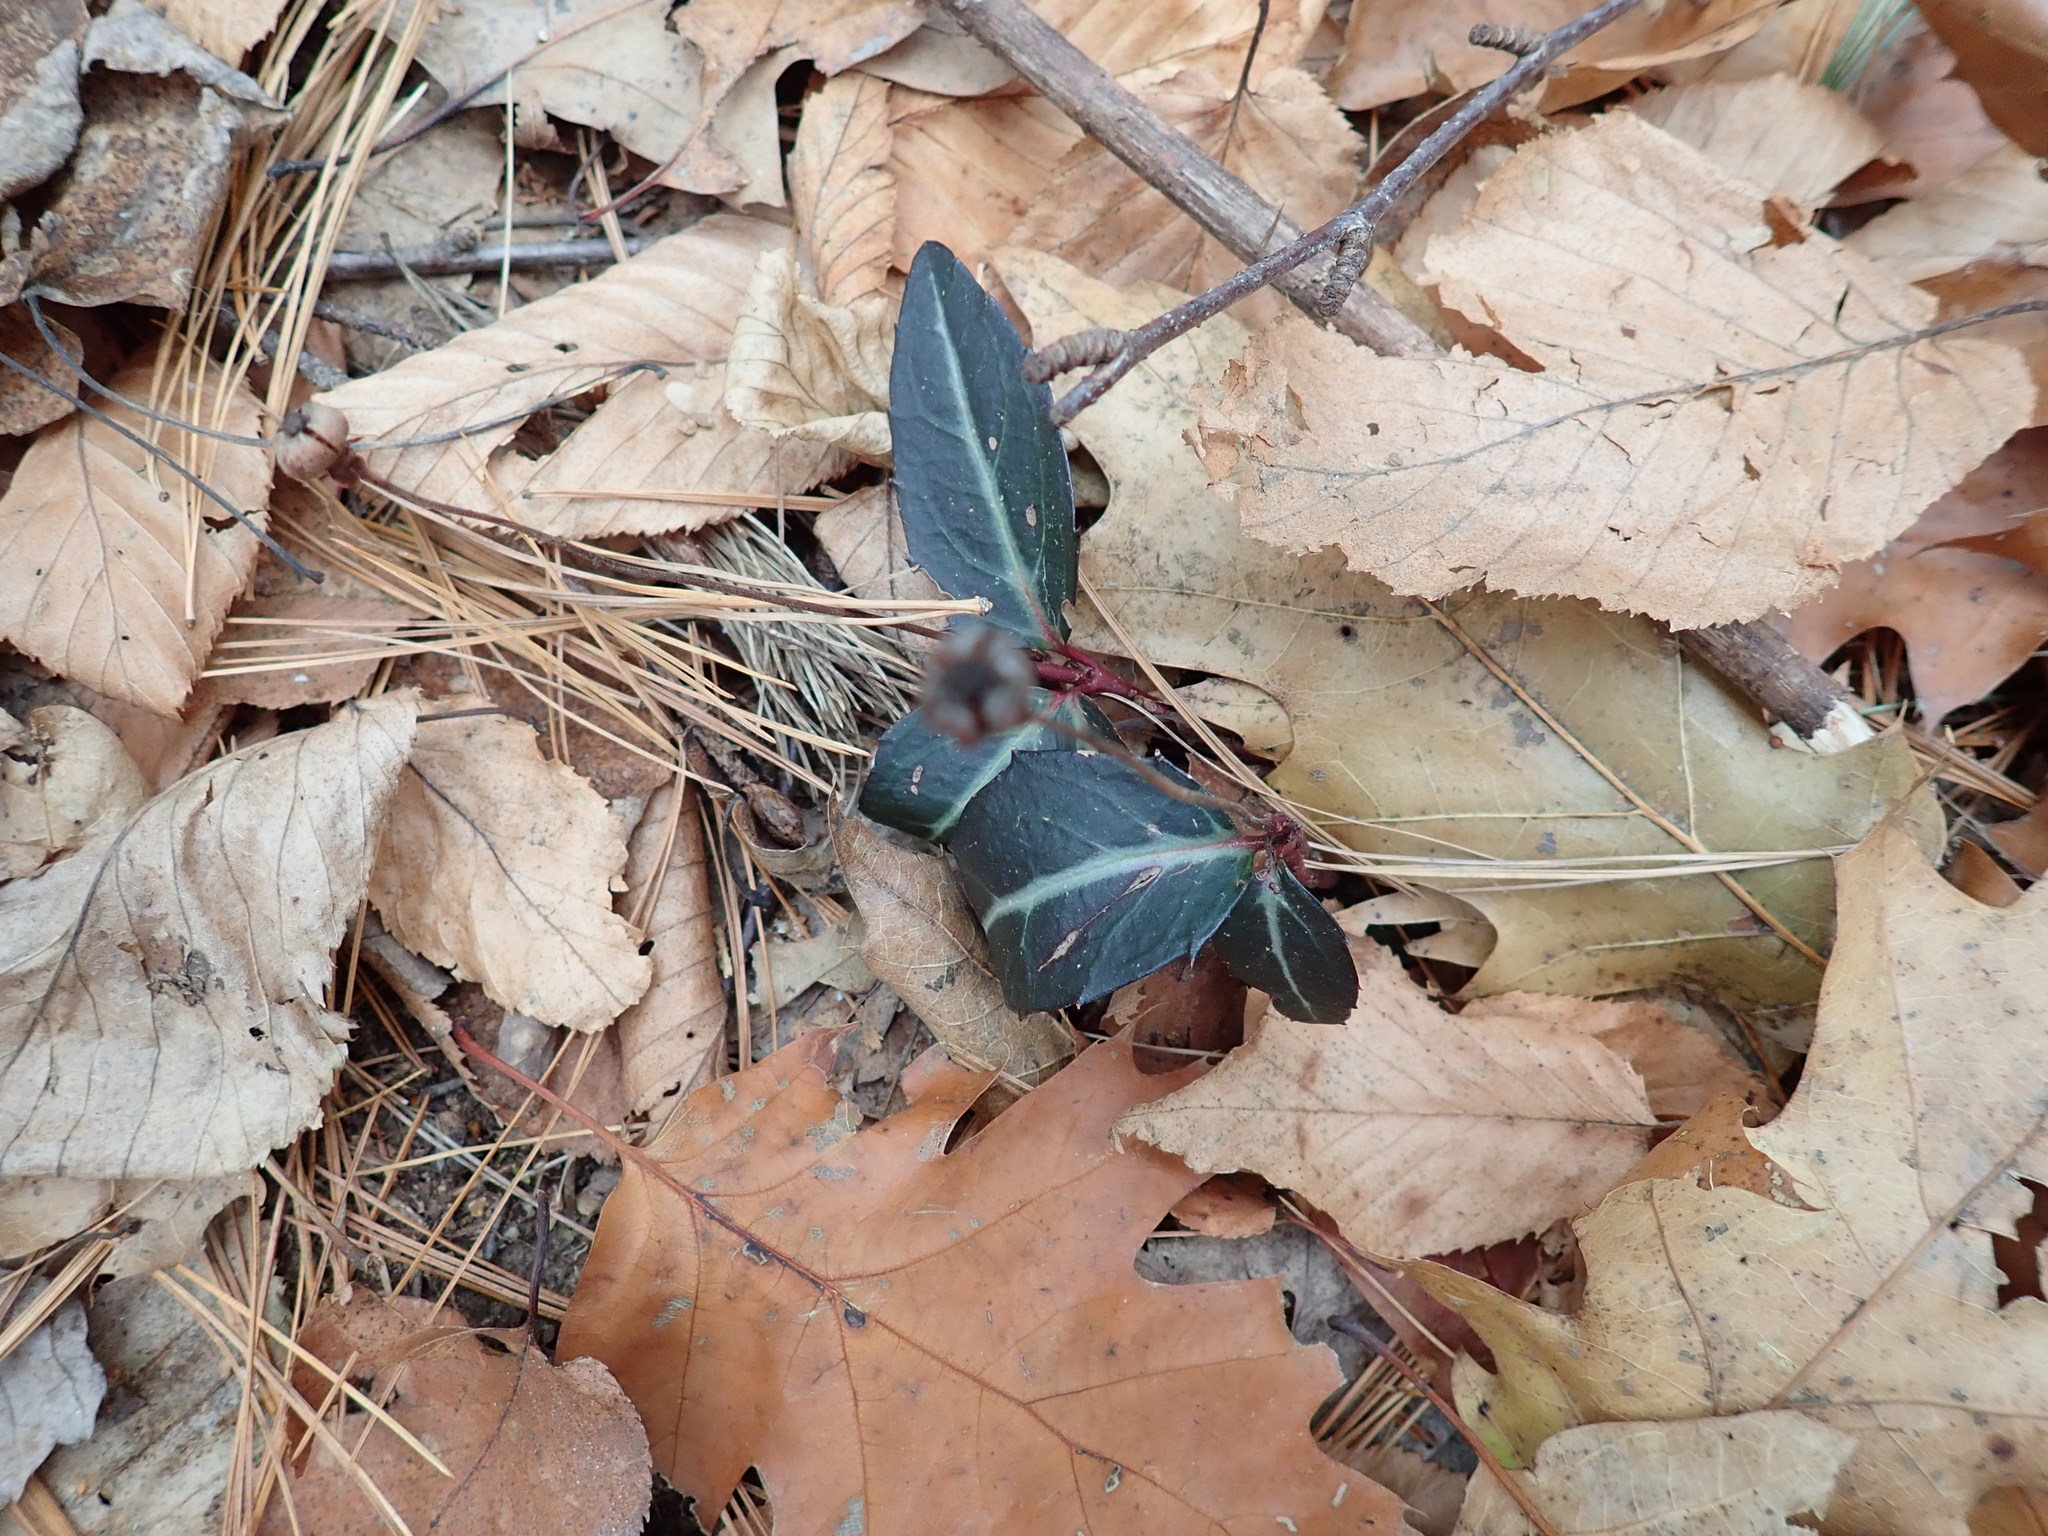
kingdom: Plantae
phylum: Tracheophyta
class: Magnoliopsida
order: Ericales
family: Ericaceae
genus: Chimaphila
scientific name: Chimaphila maculata
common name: Spotted pipsissewa
